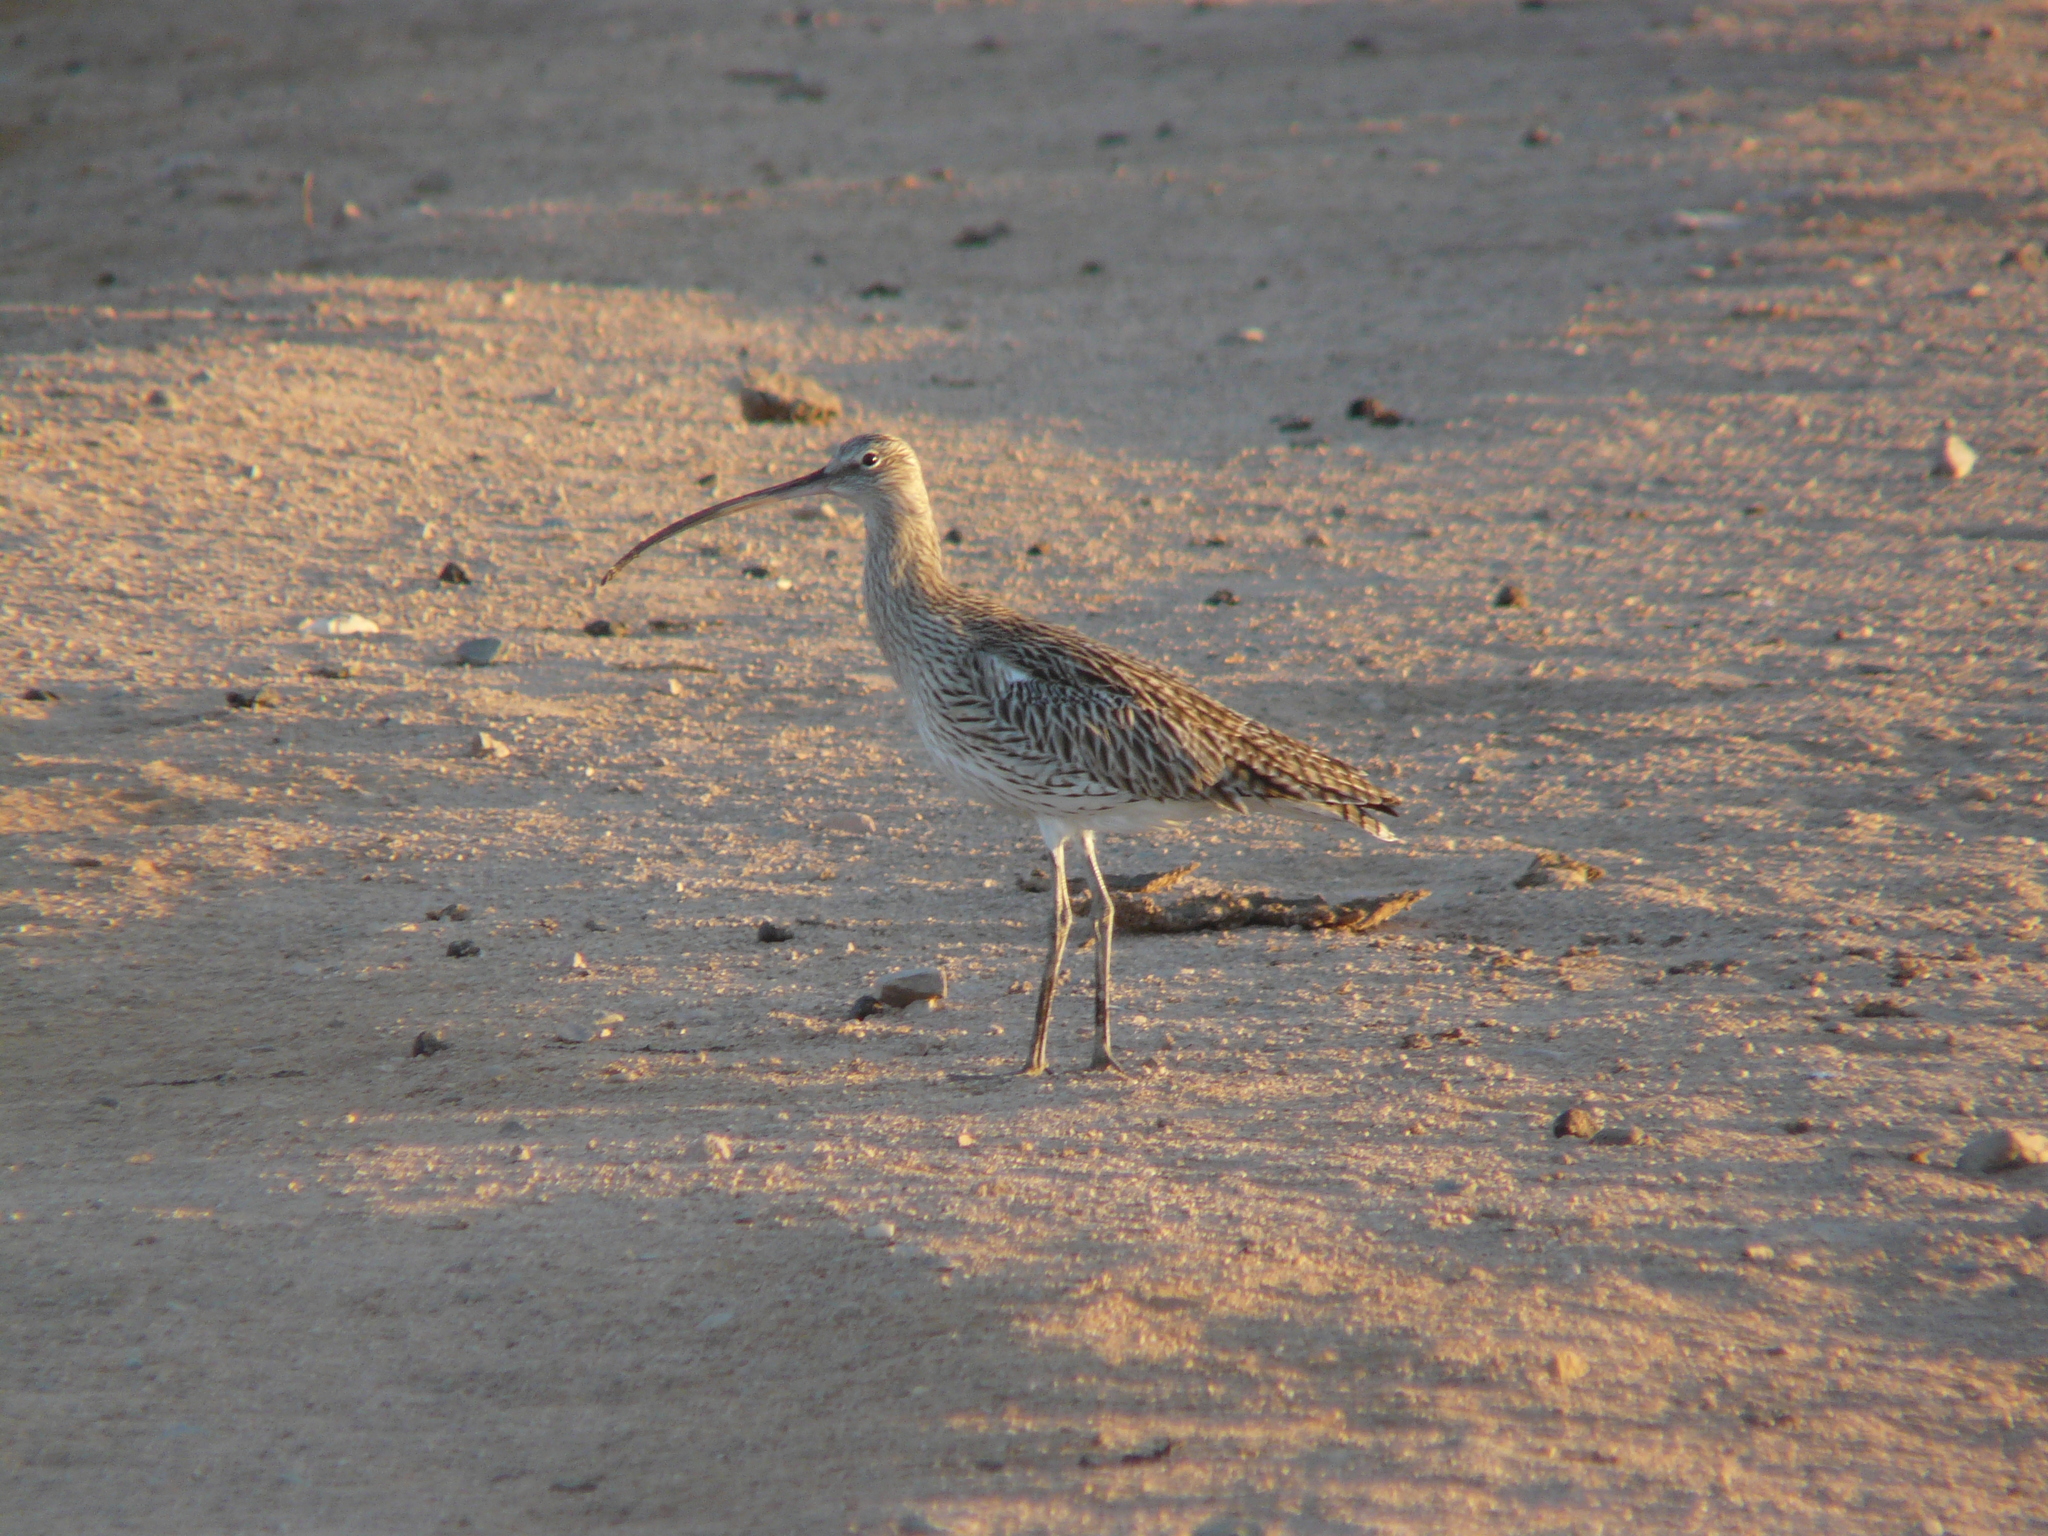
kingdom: Animalia
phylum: Chordata
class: Aves
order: Charadriiformes
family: Scolopacidae
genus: Numenius
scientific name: Numenius arquata
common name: Eurasian curlew
